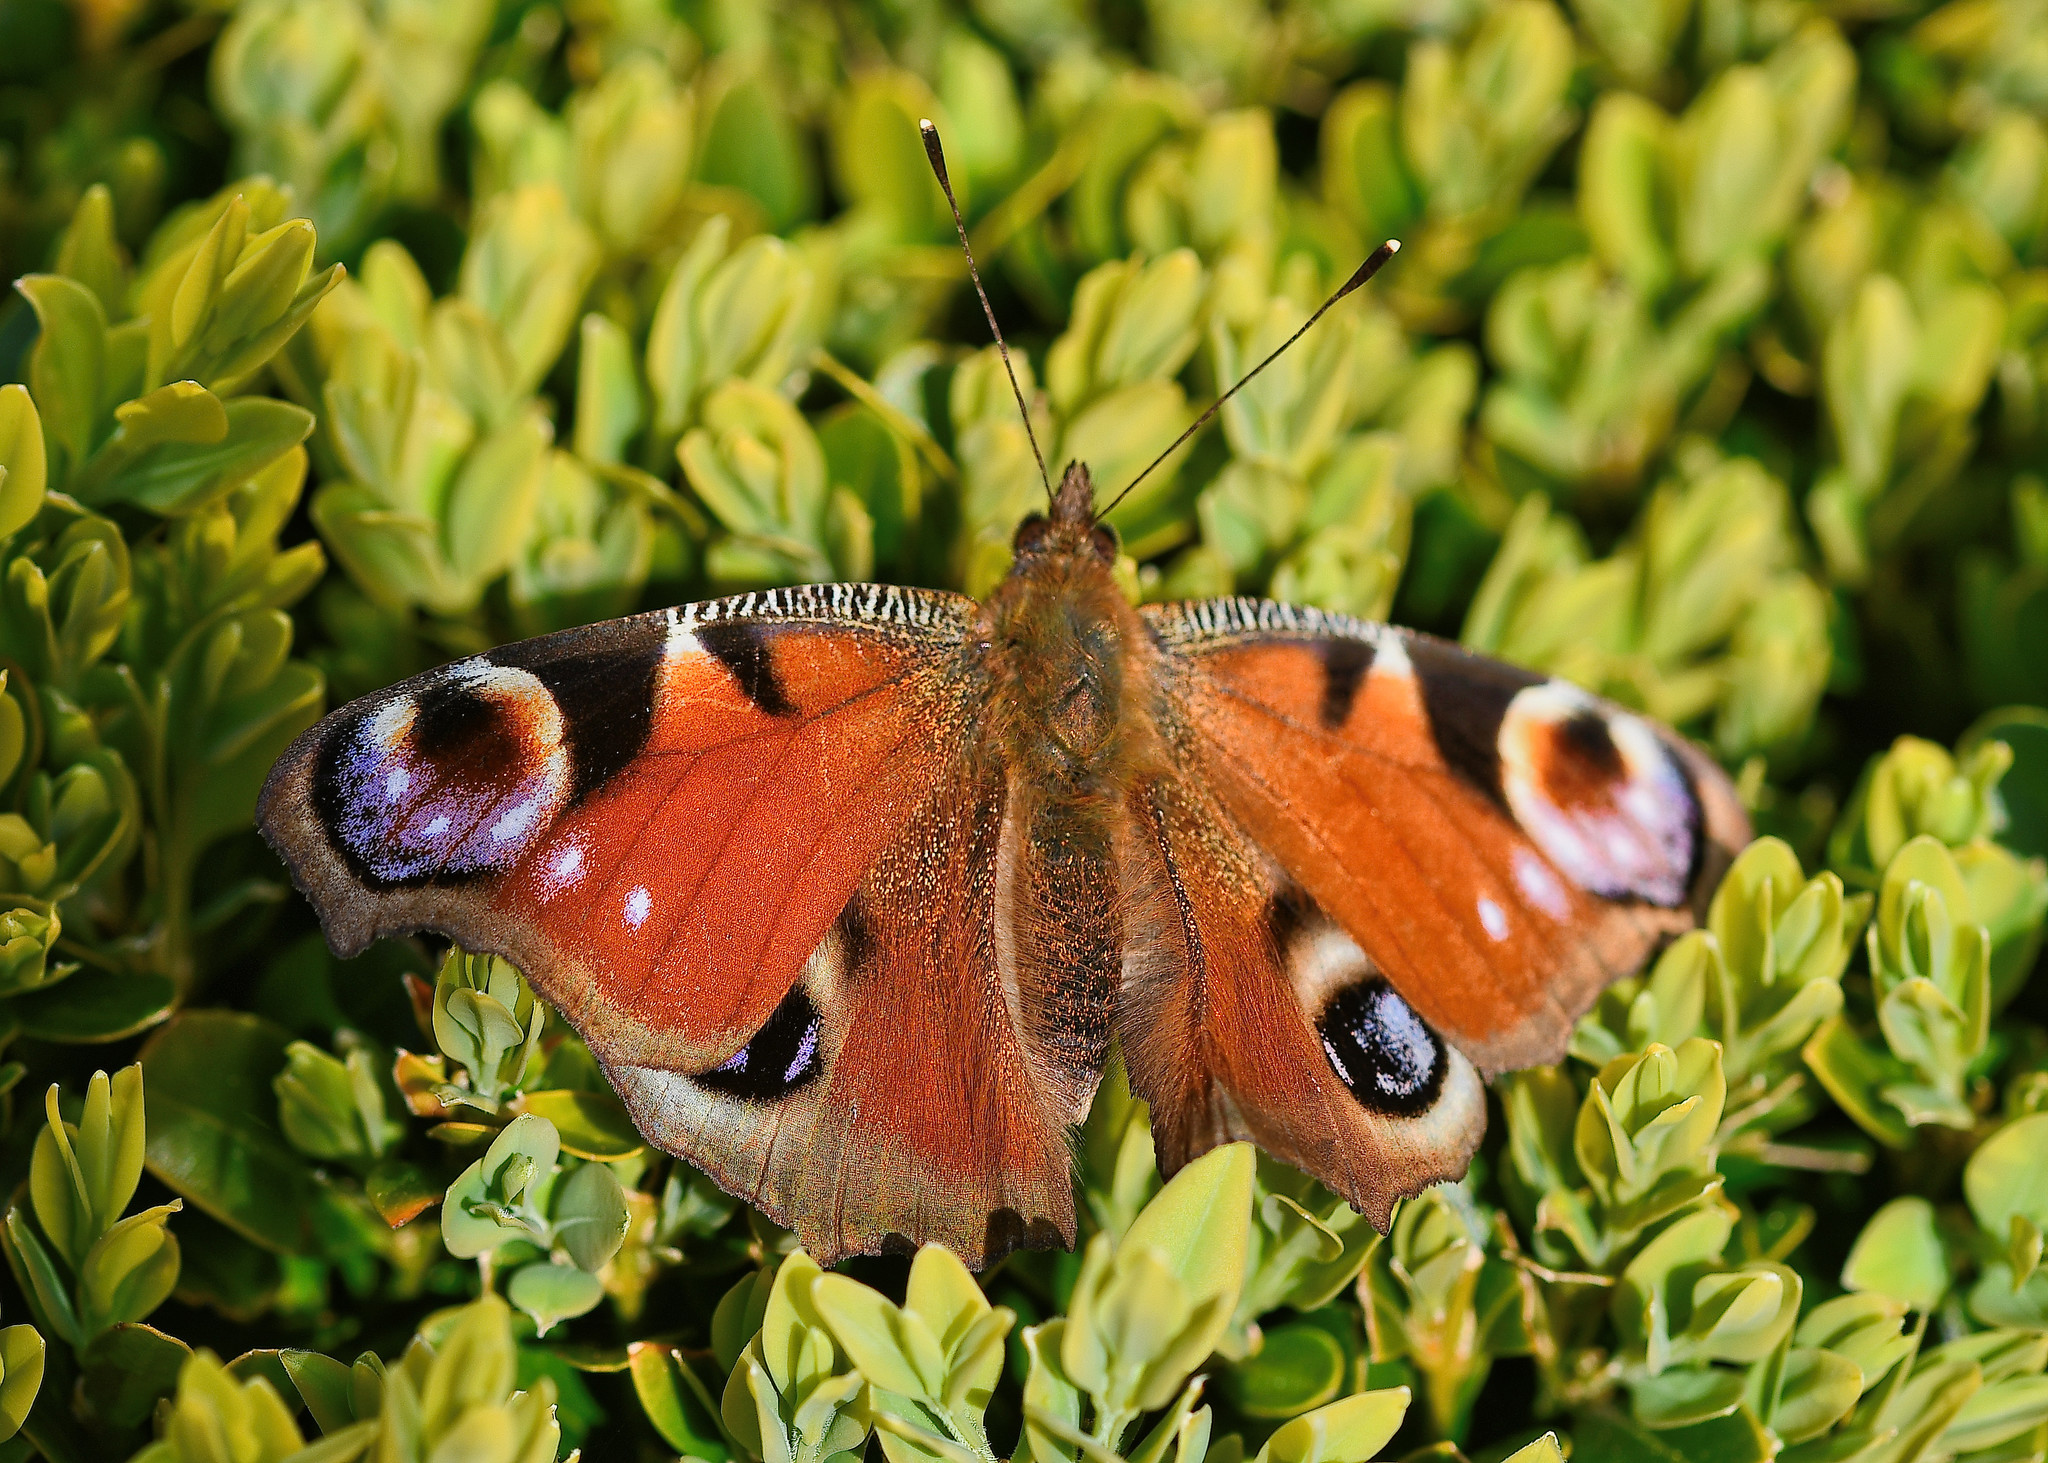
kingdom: Animalia
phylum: Arthropoda
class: Insecta
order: Lepidoptera
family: Nymphalidae
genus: Aglais
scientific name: Aglais io
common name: Peacock
